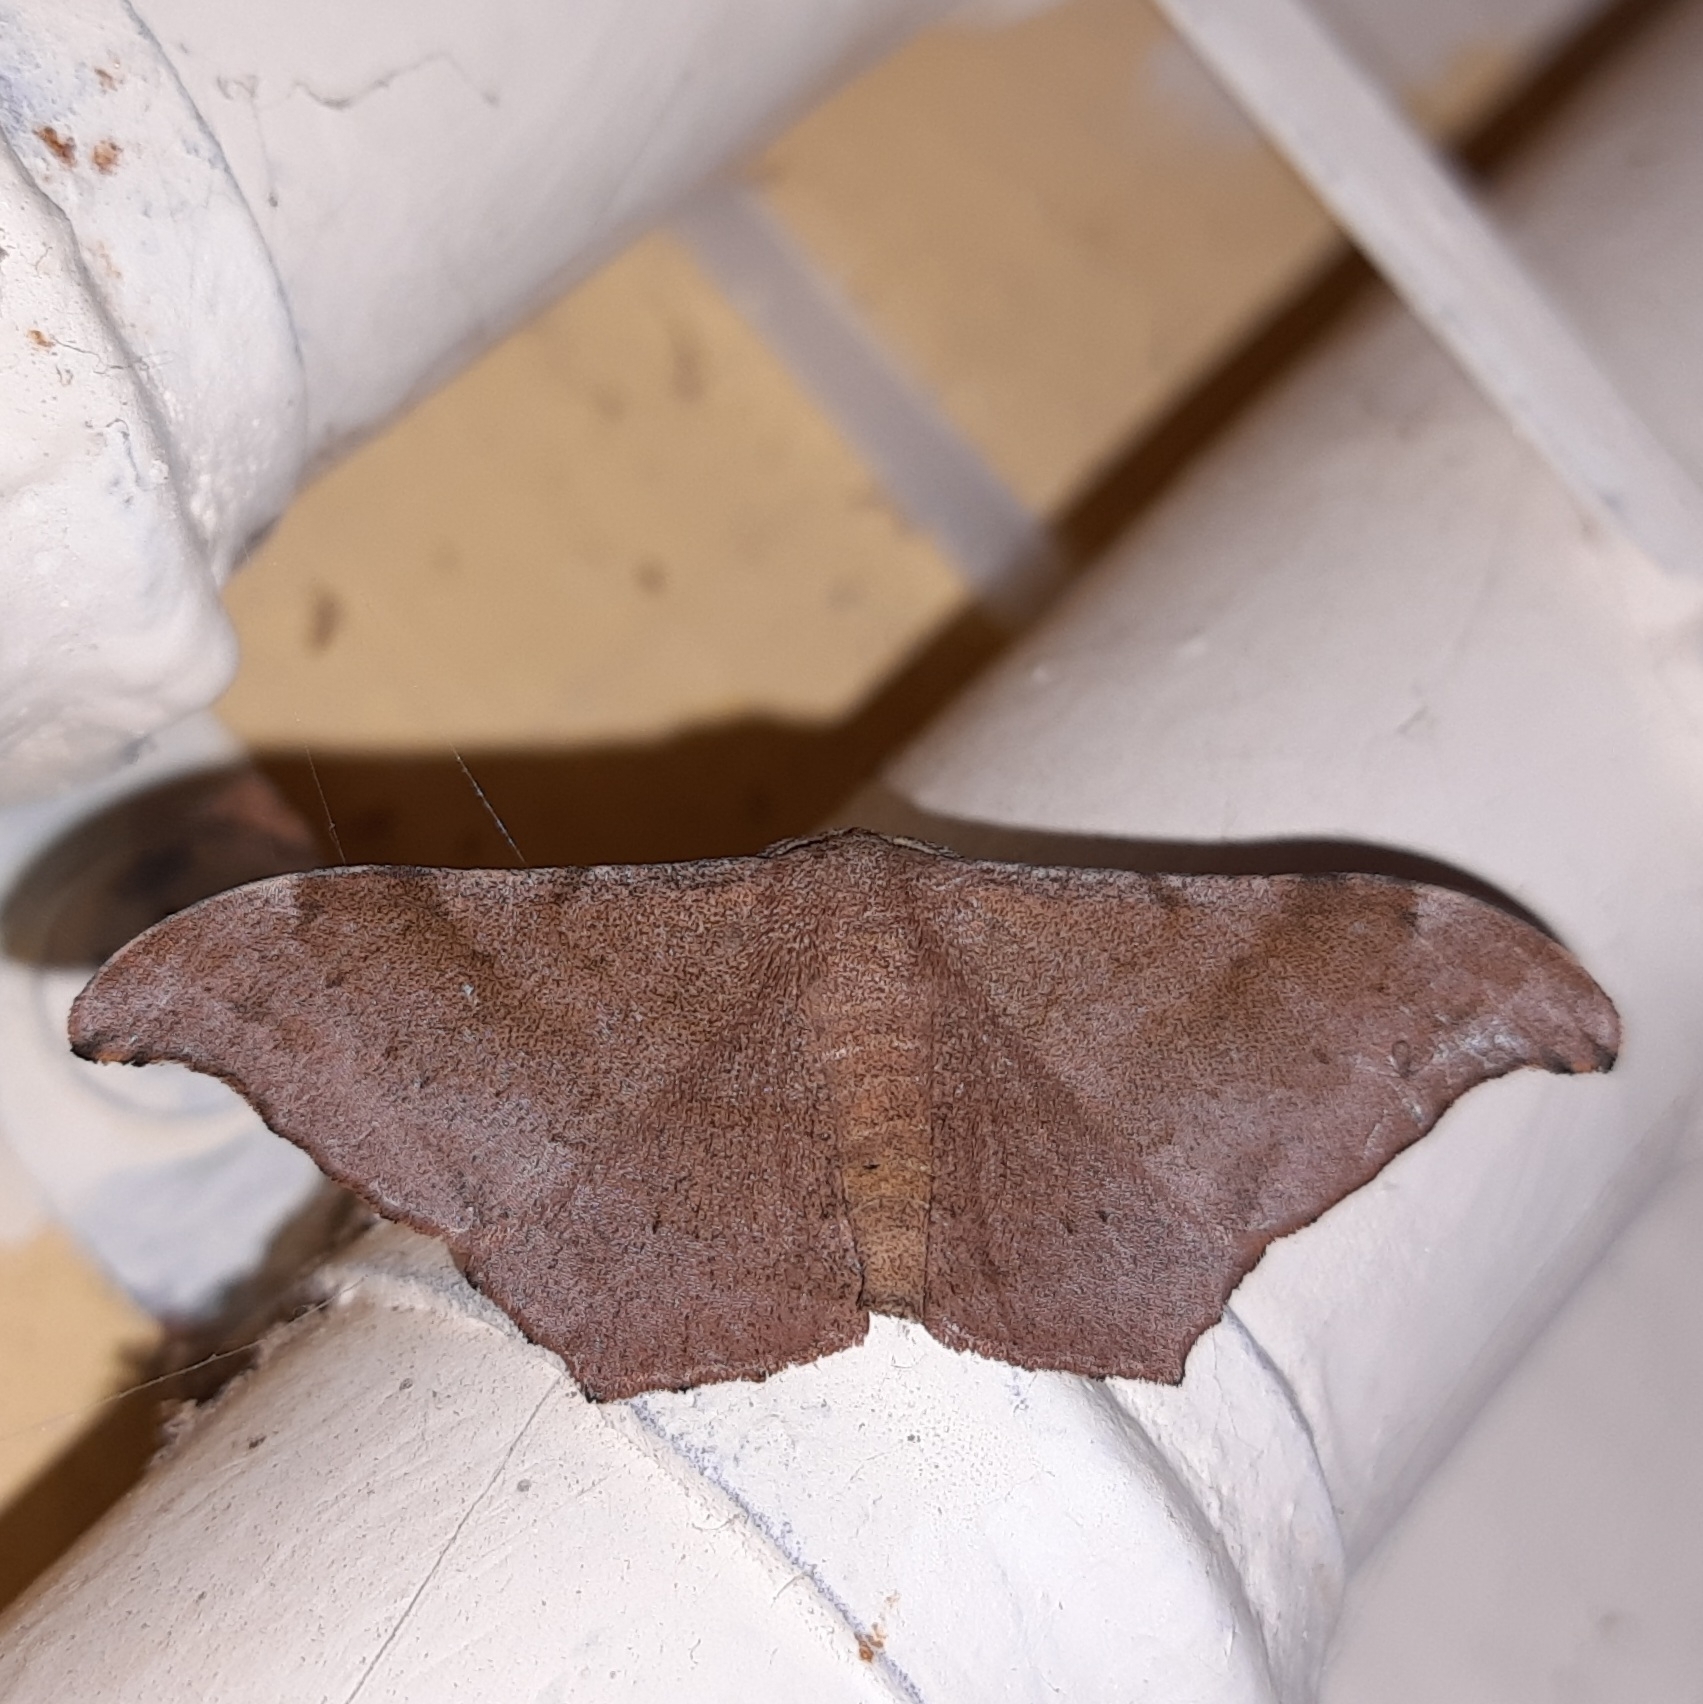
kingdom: Animalia
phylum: Arthropoda
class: Insecta
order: Lepidoptera
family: Geometridae
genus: Hyposidra
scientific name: Hyposidra talaca
